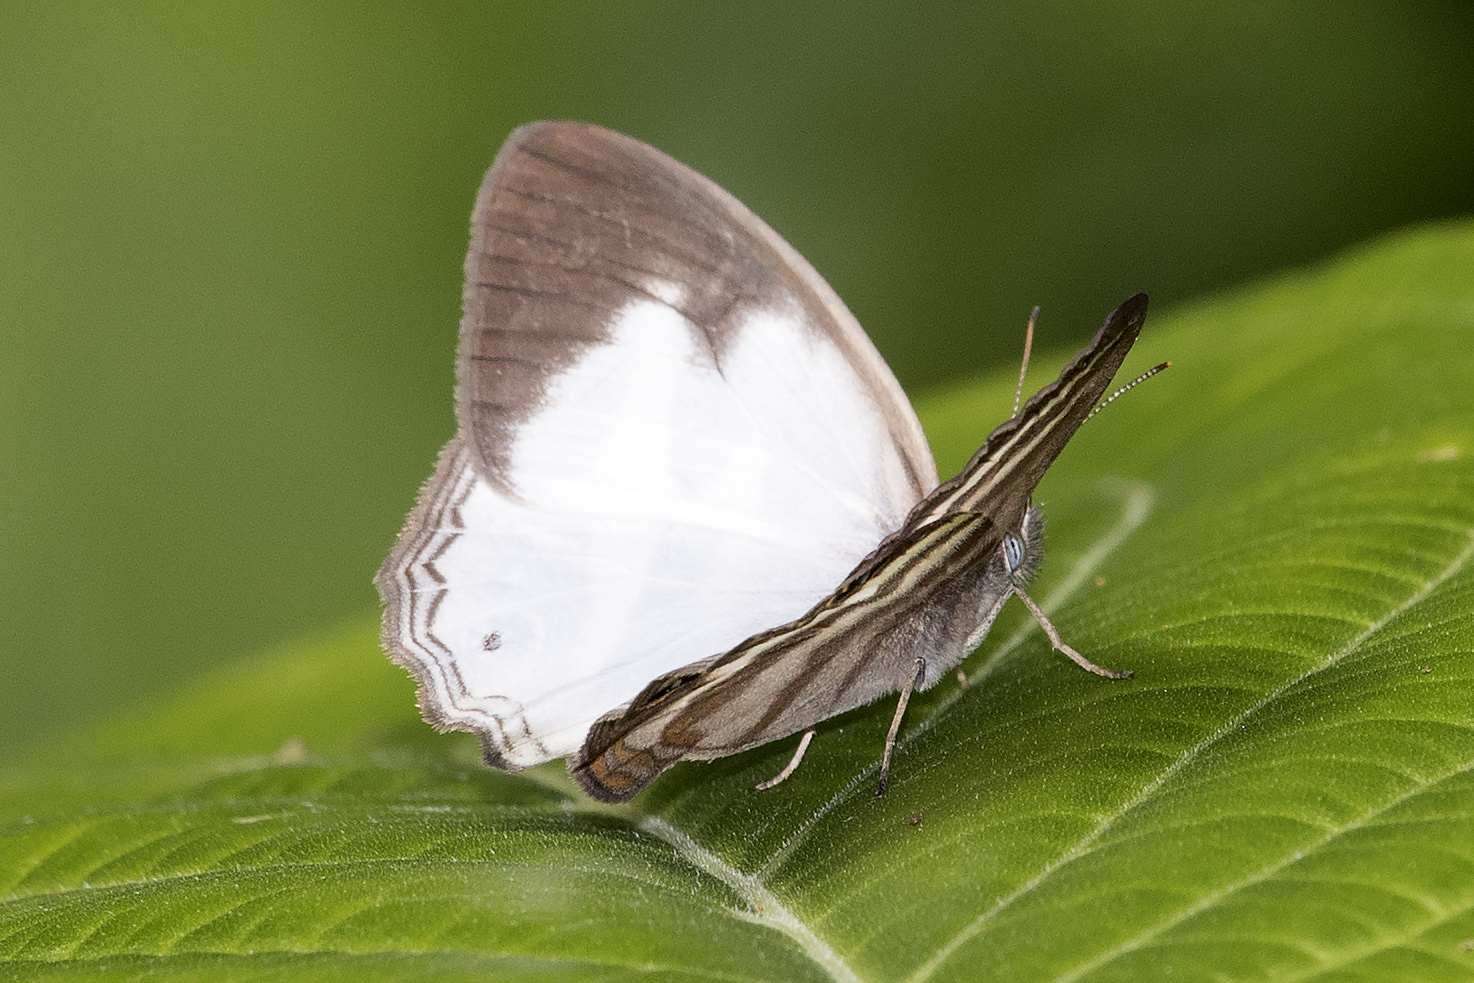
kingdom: Animalia
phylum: Arthropoda
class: Insecta
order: Lepidoptera
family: Nymphalidae
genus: Pareuptychia
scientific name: Pareuptychia hesione
